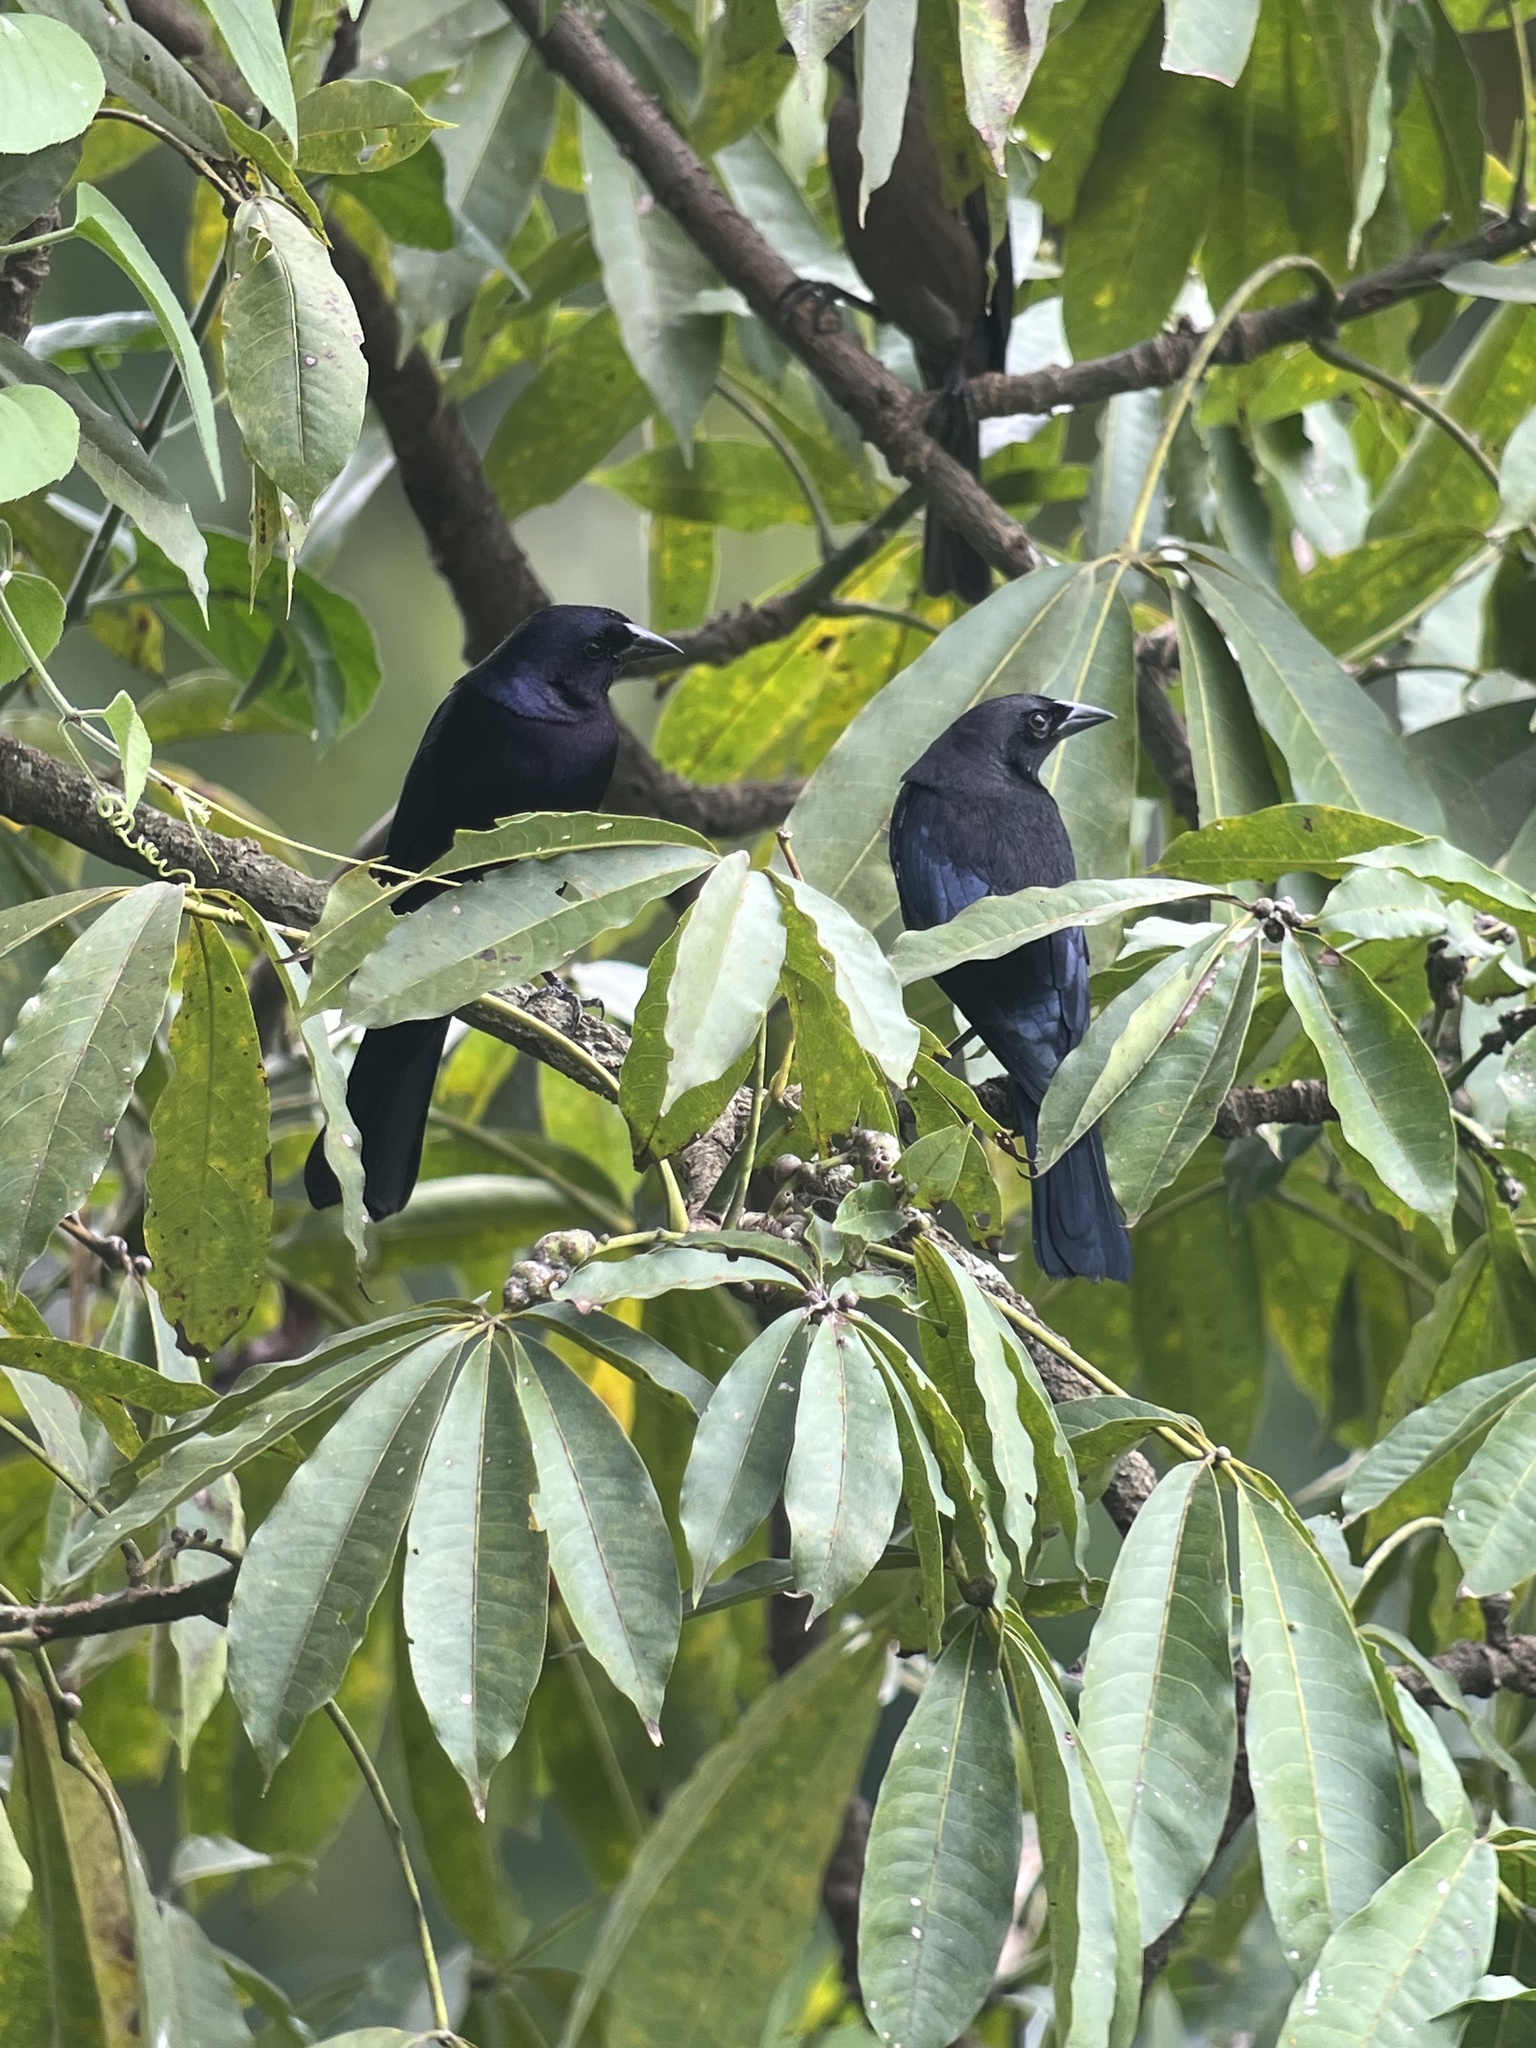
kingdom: Animalia
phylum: Chordata
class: Aves
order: Passeriformes
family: Icteridae
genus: Molothrus
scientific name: Molothrus oryzivorus
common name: Giant cowbird
